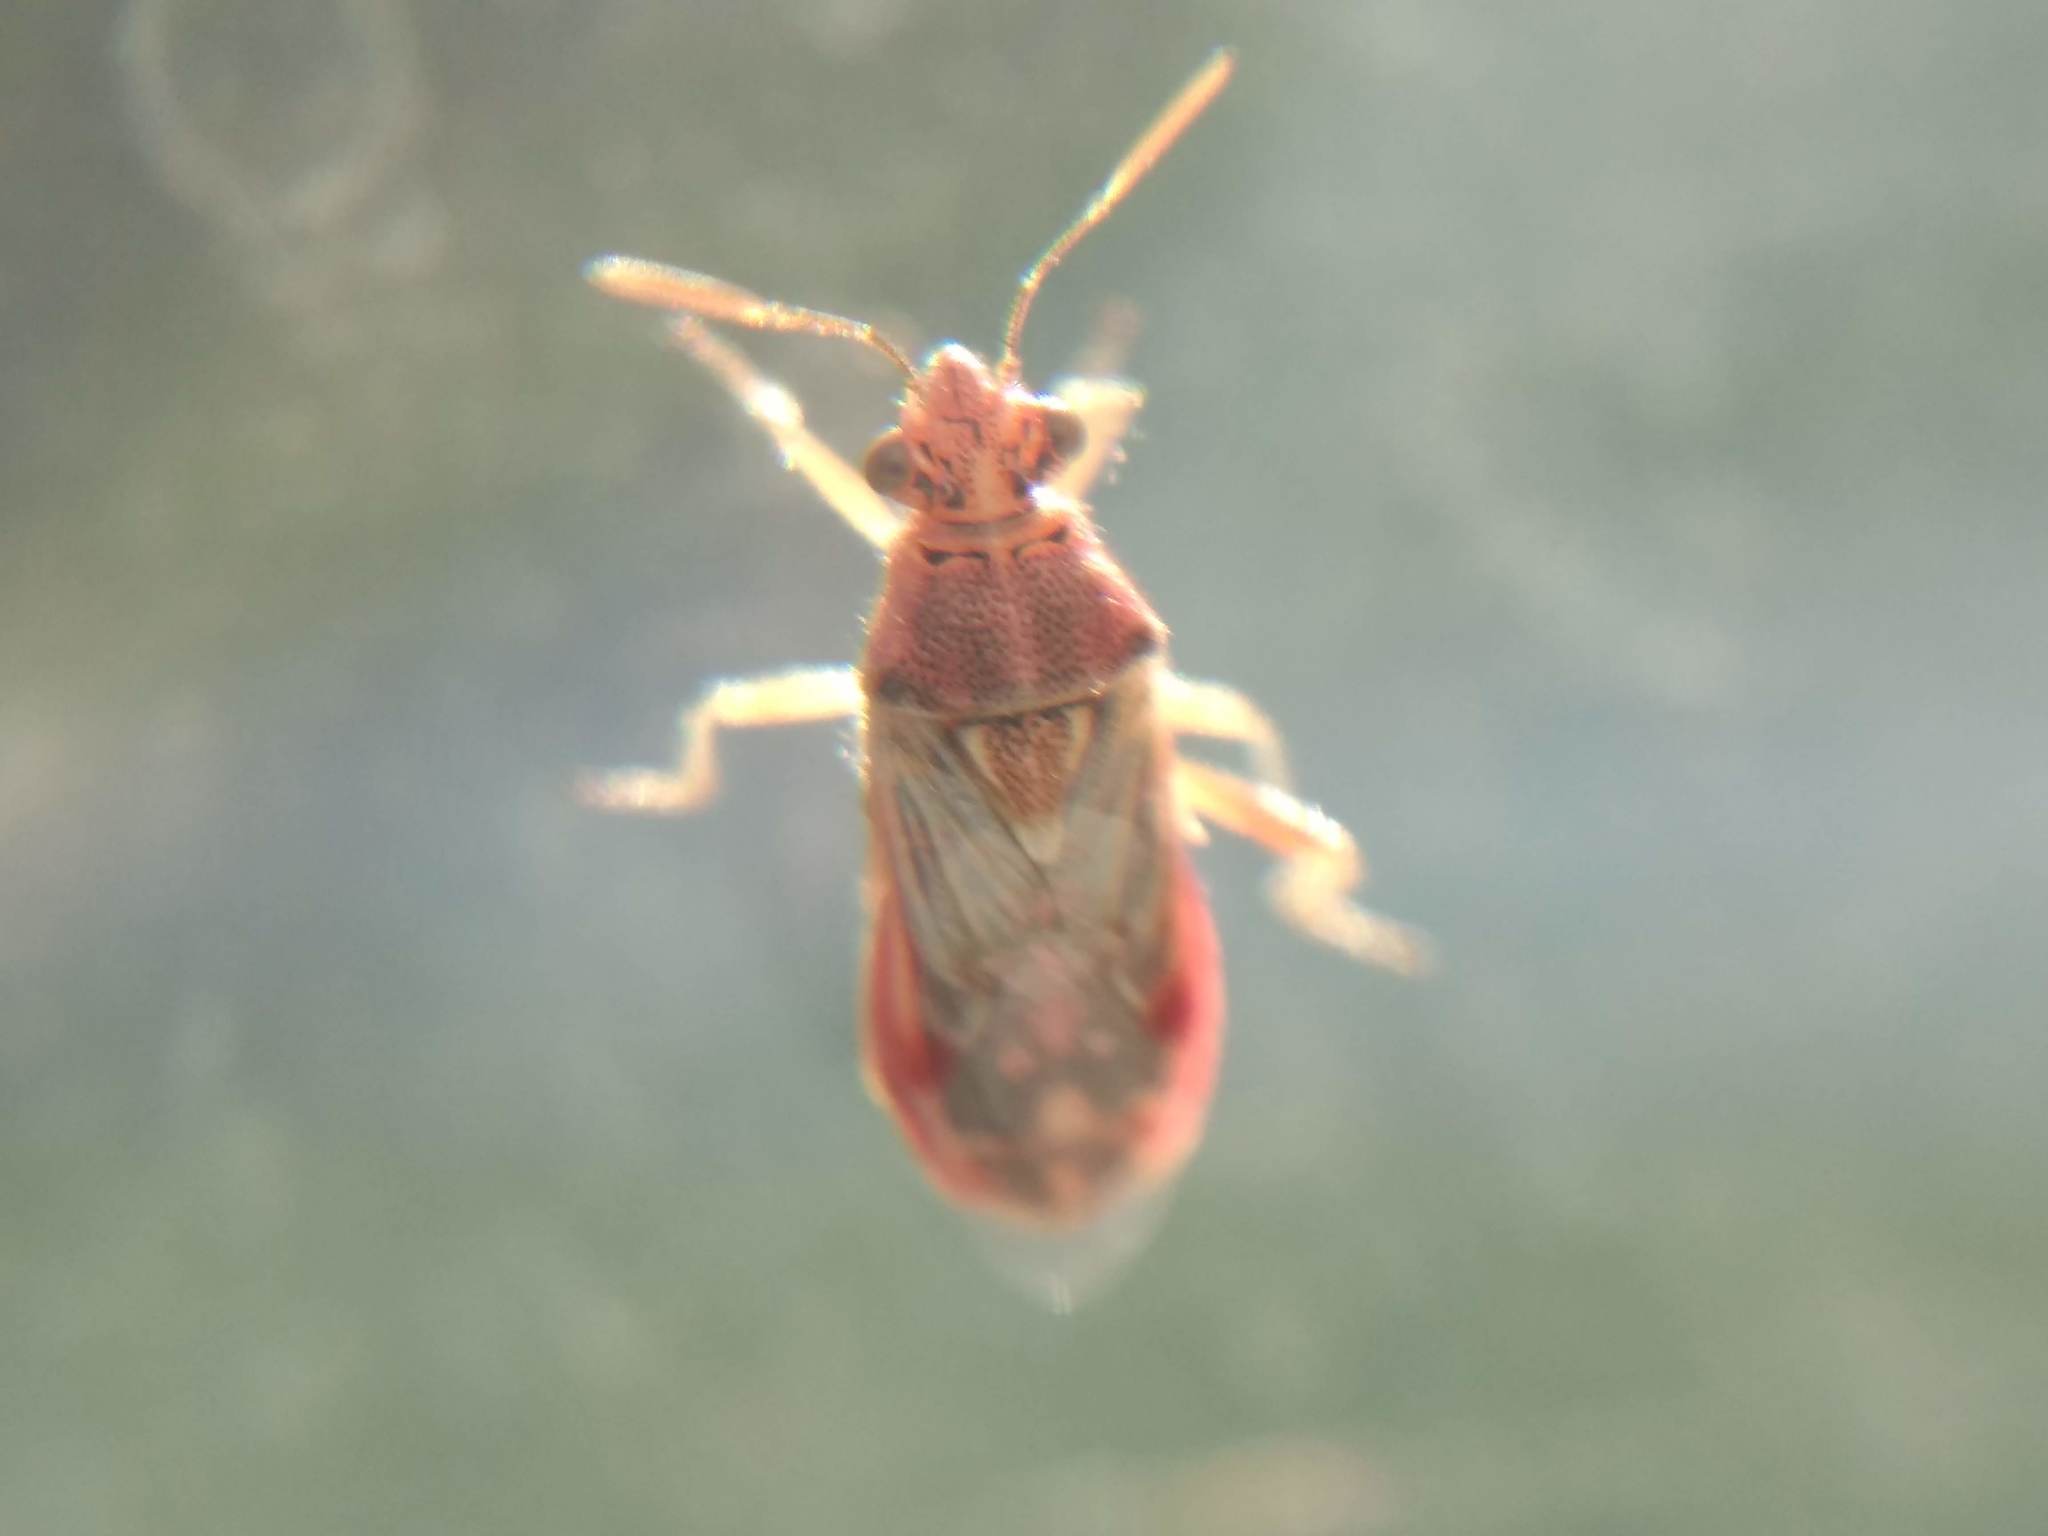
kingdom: Animalia
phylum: Arthropoda
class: Insecta
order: Hemiptera
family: Rhopalidae
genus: Liorhyssus
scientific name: Liorhyssus hyalinus
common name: Scentless plant bug
